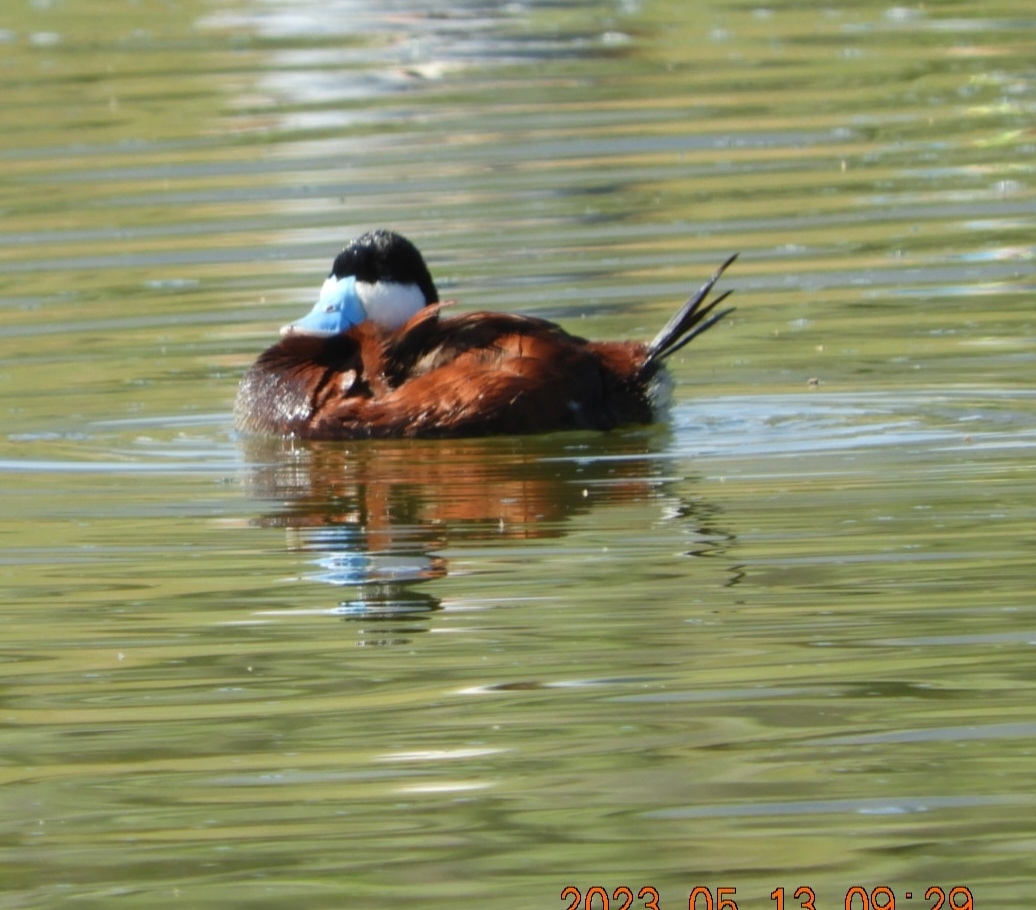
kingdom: Animalia
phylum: Chordata
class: Aves
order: Anseriformes
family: Anatidae
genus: Oxyura
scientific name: Oxyura jamaicensis
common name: Ruddy duck
